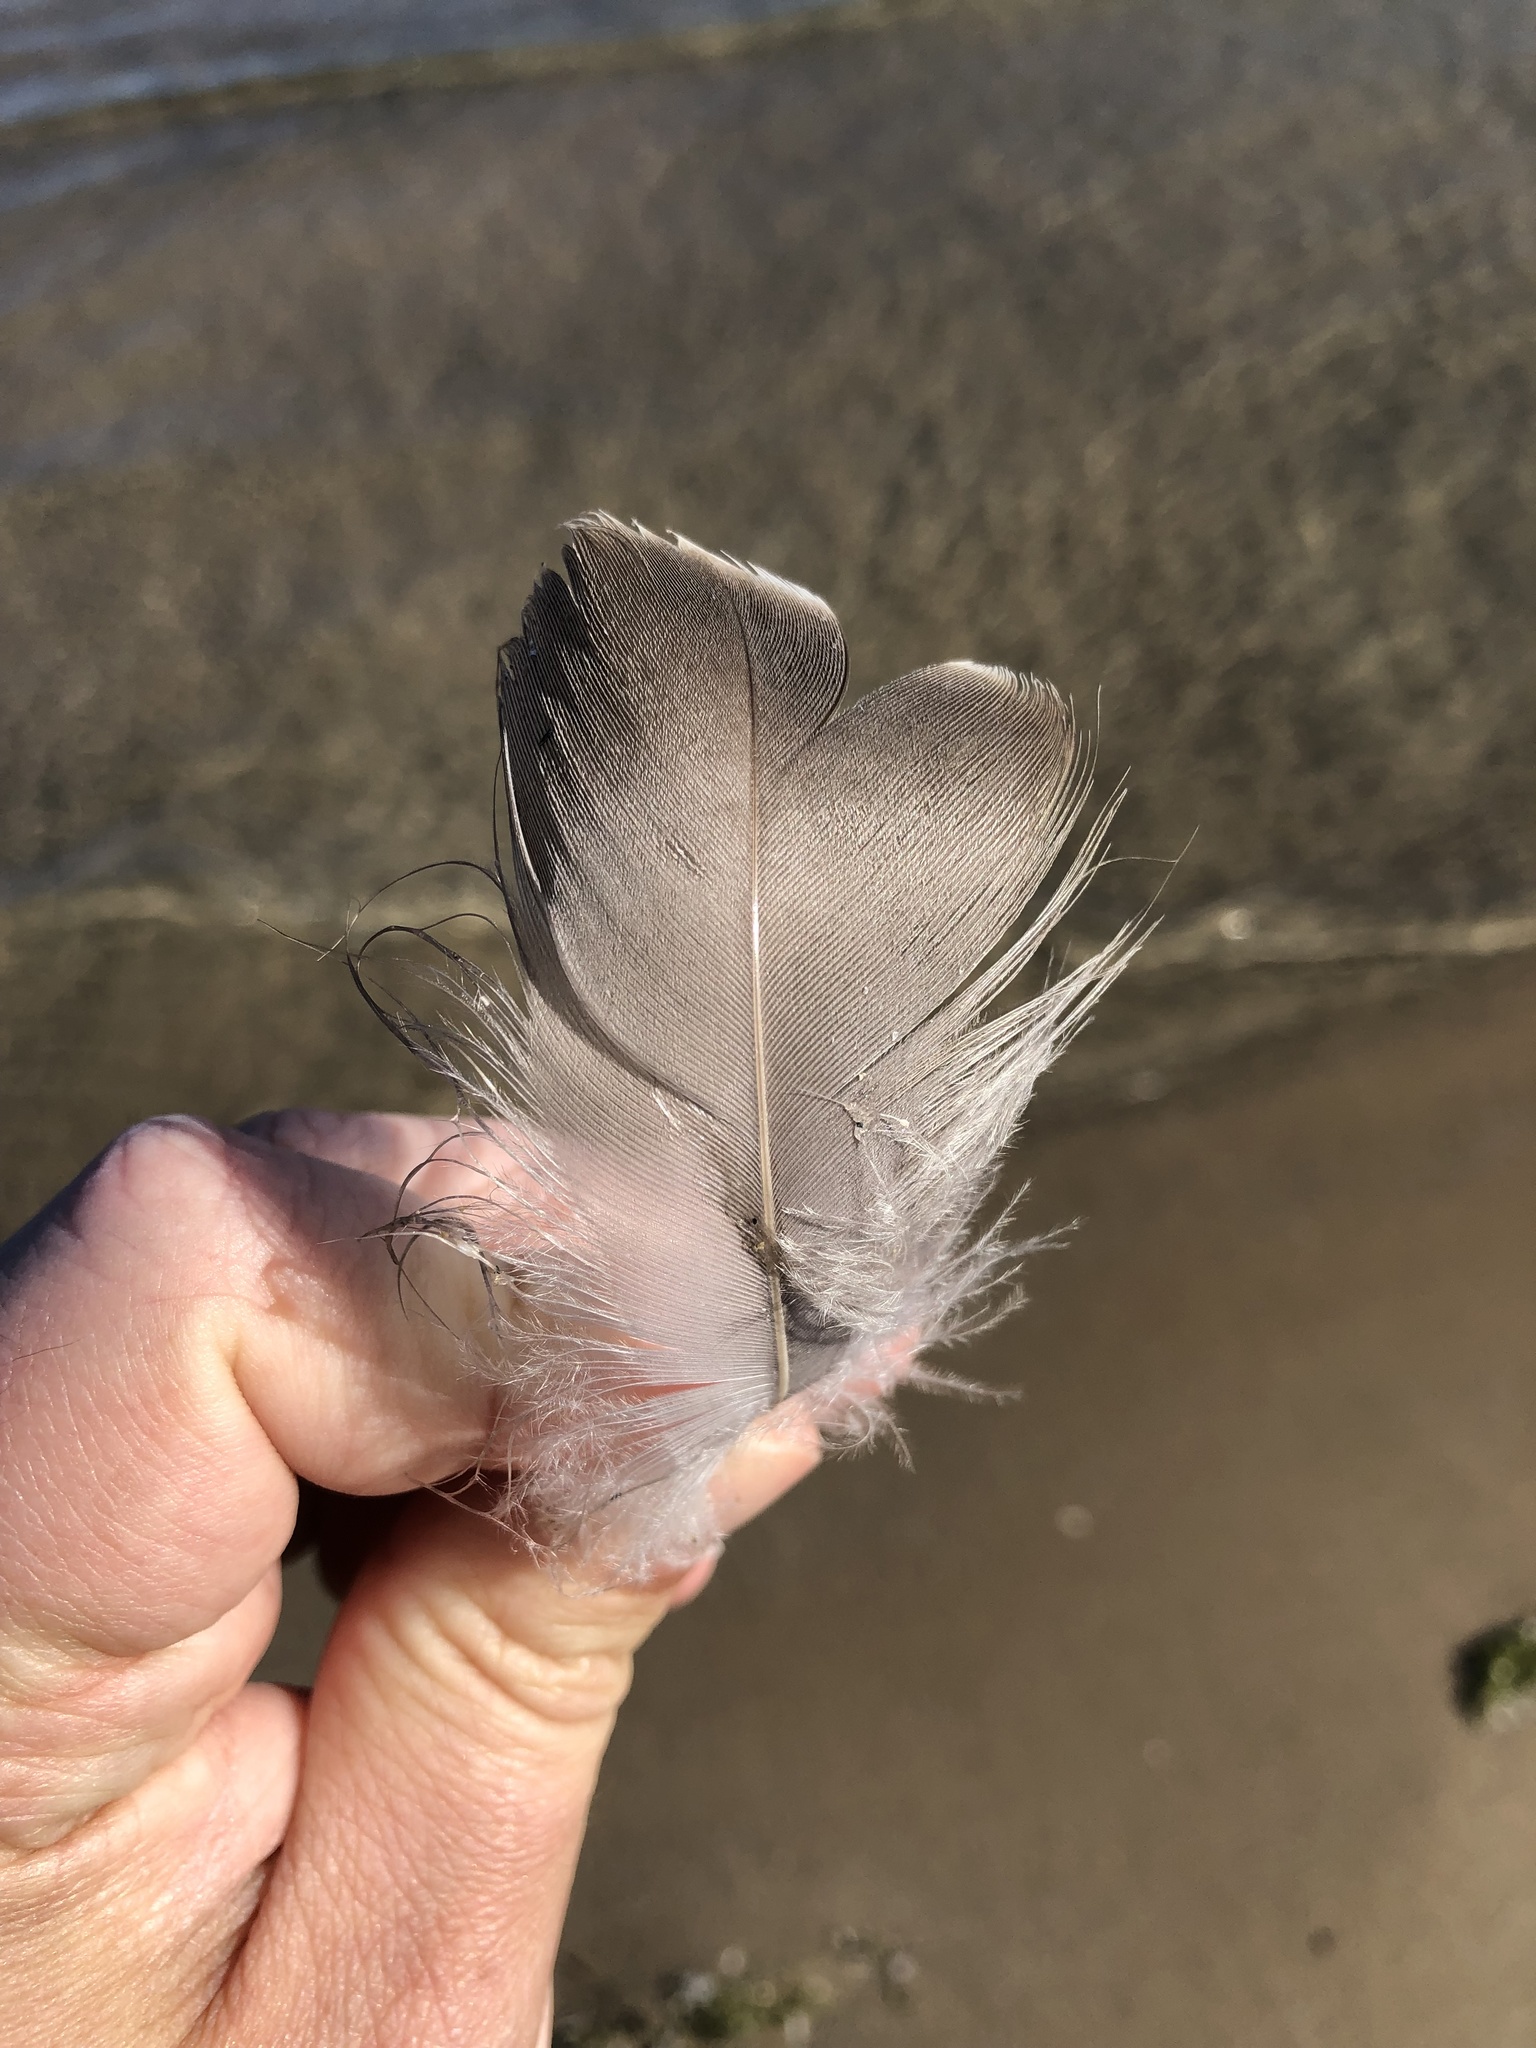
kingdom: Animalia
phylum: Chordata
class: Aves
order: Anseriformes
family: Anatidae
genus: Branta
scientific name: Branta canadensis
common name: Canada goose
